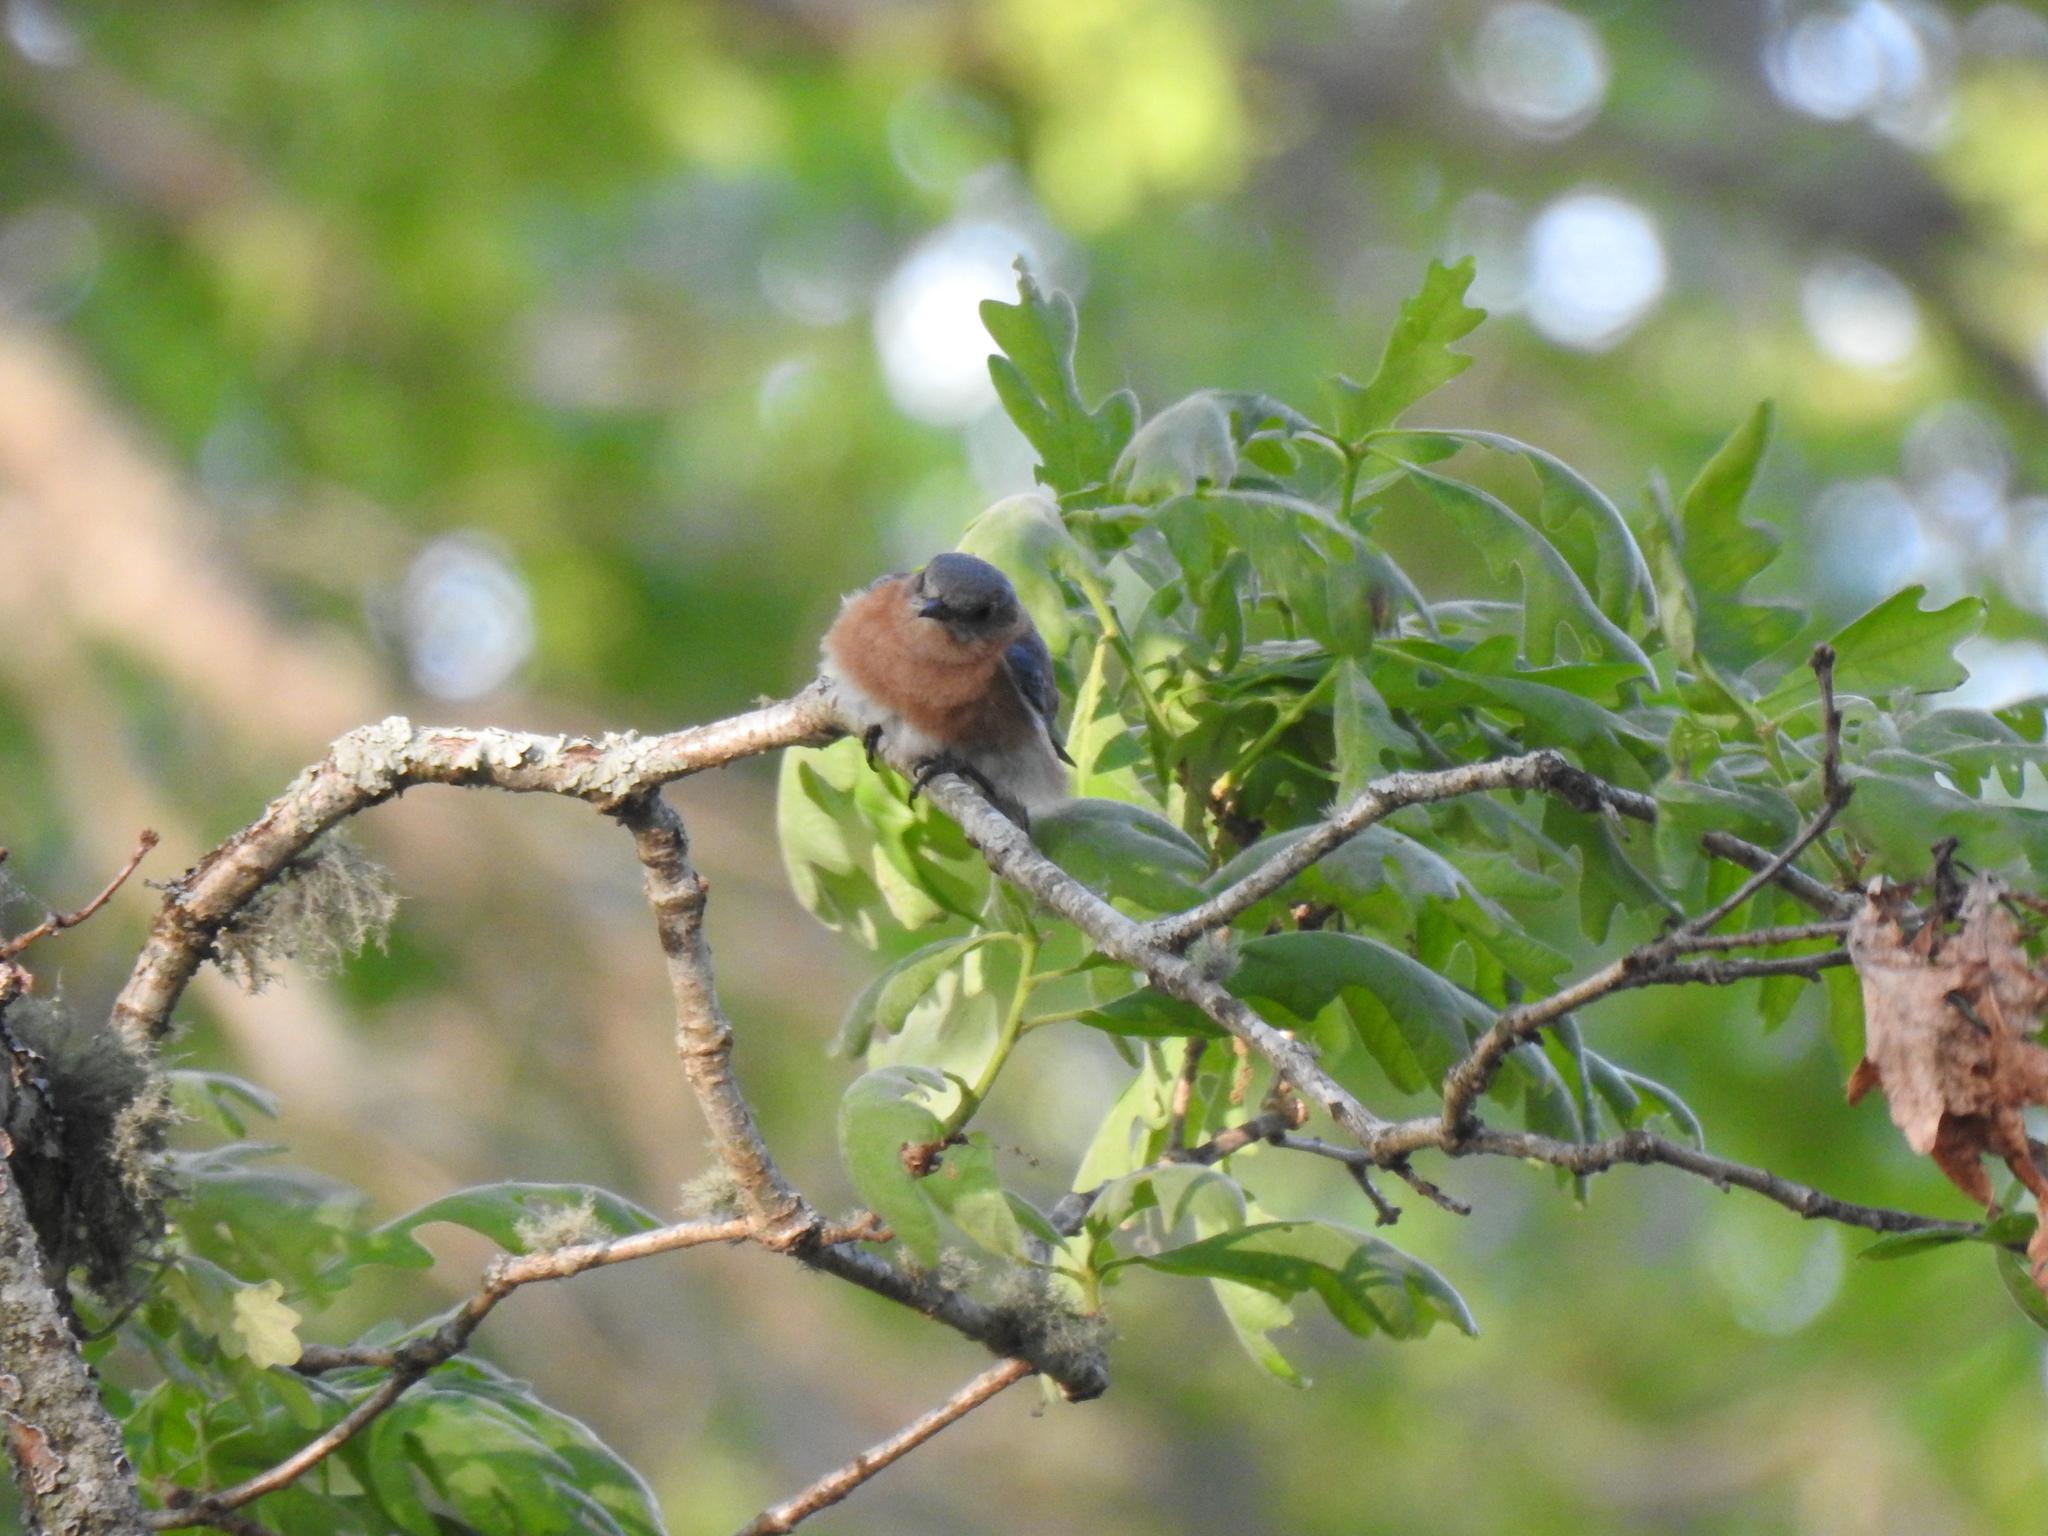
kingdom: Animalia
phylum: Chordata
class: Aves
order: Passeriformes
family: Turdidae
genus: Sialia
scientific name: Sialia sialis
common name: Eastern bluebird
